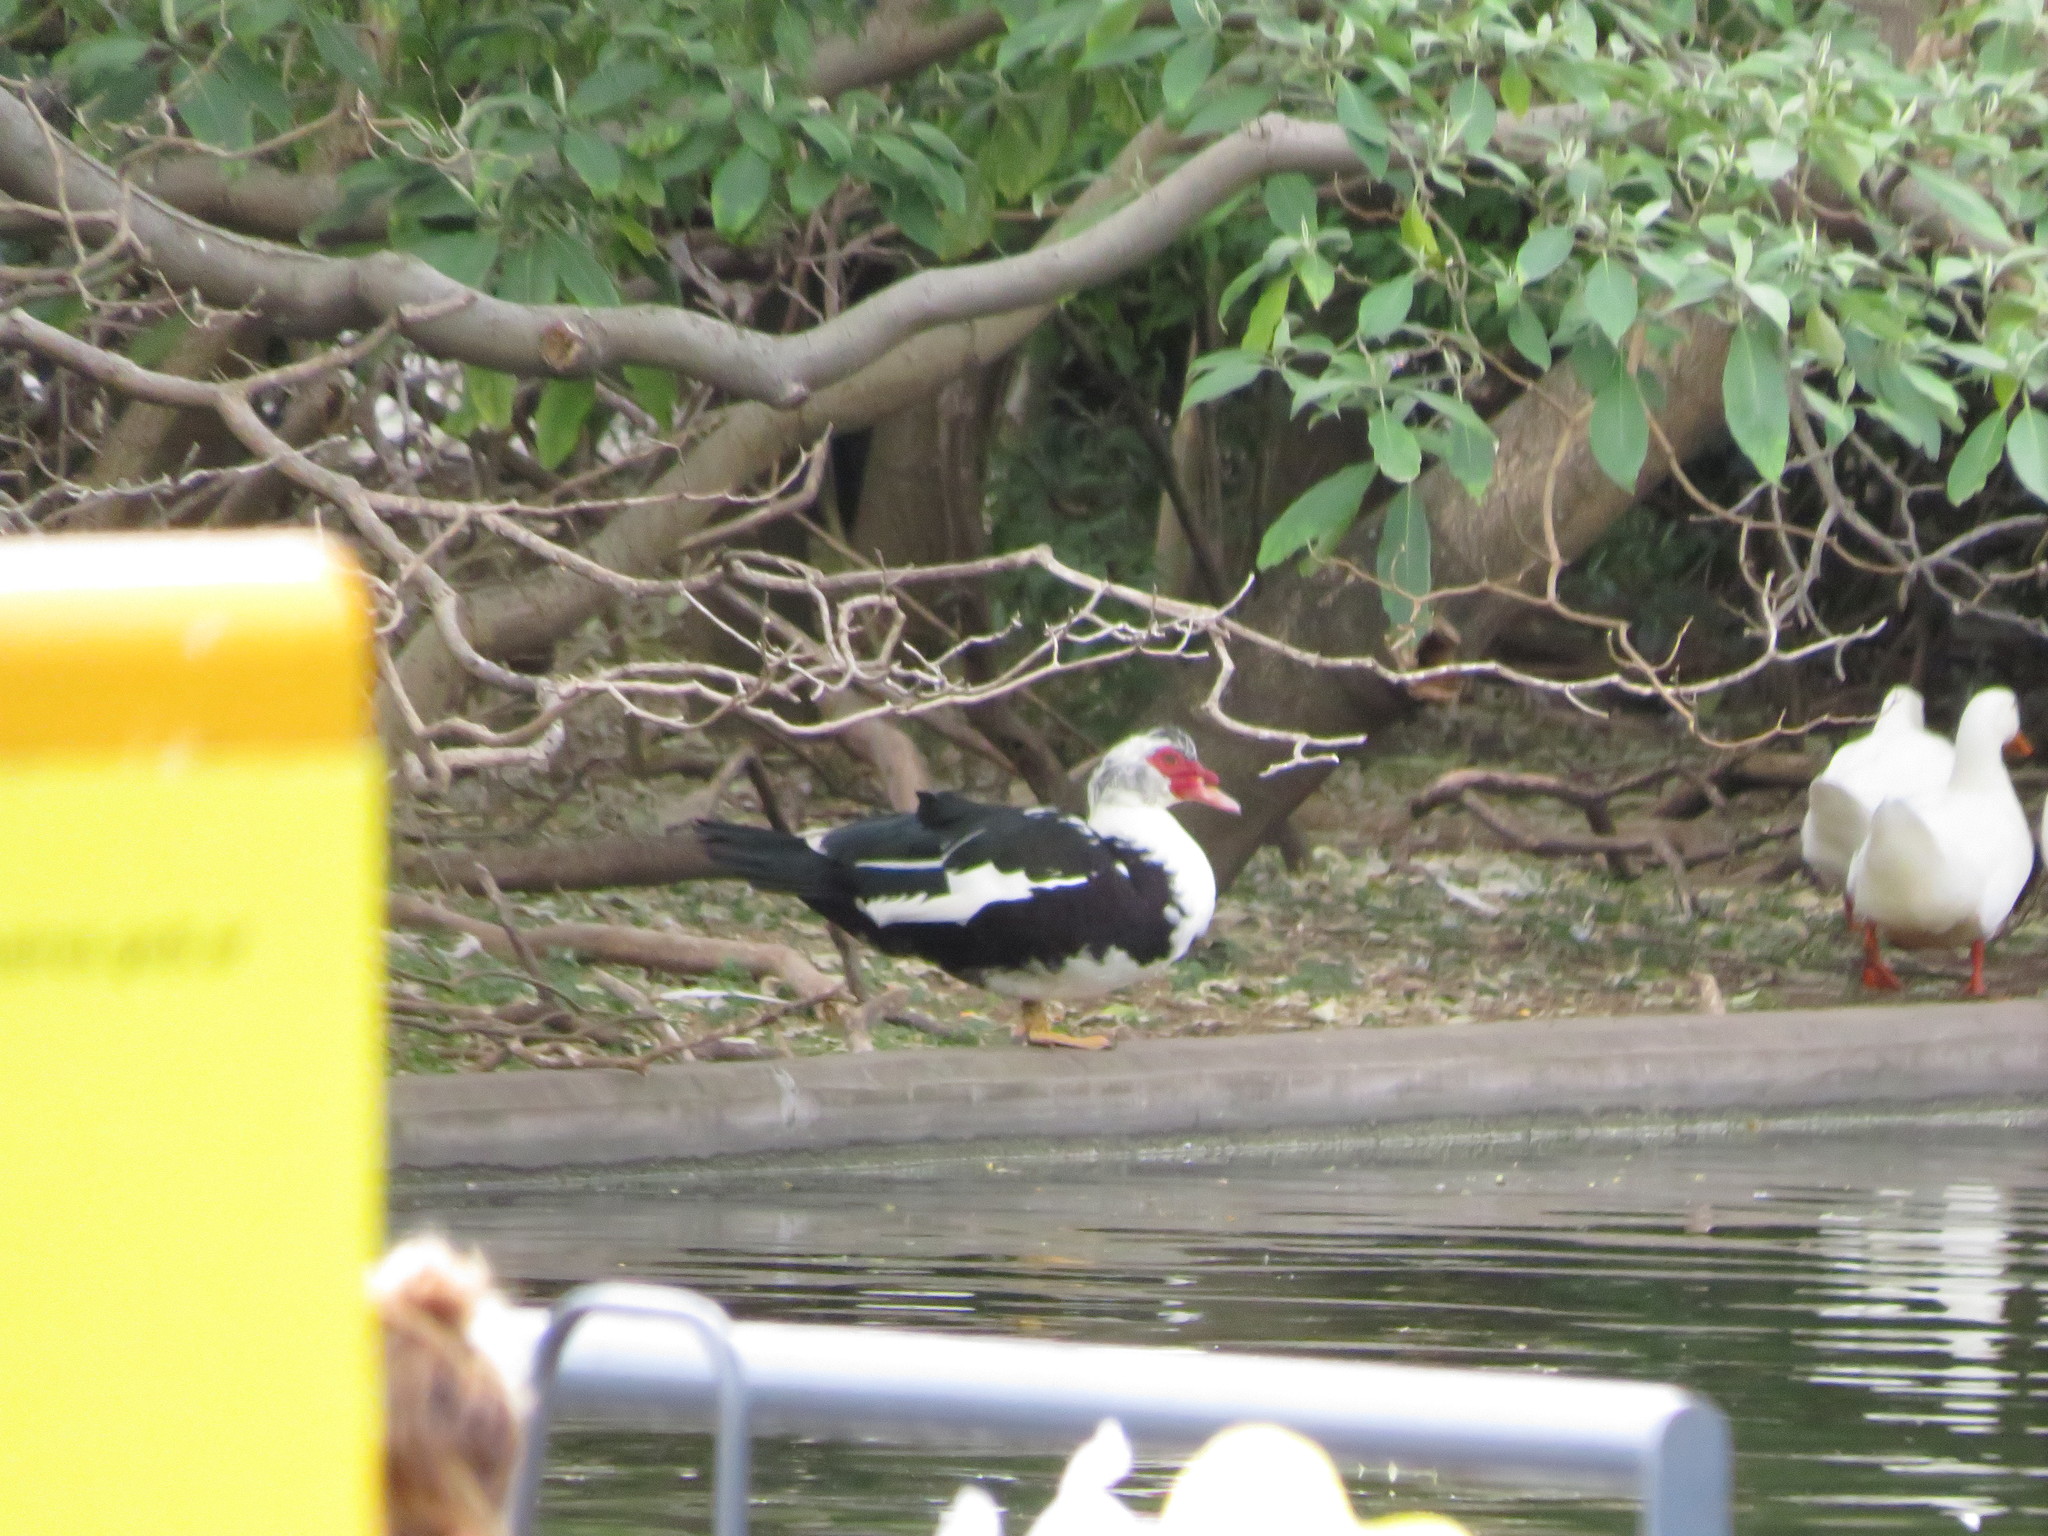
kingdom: Animalia
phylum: Chordata
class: Aves
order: Anseriformes
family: Anatidae
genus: Cairina
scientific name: Cairina moschata
